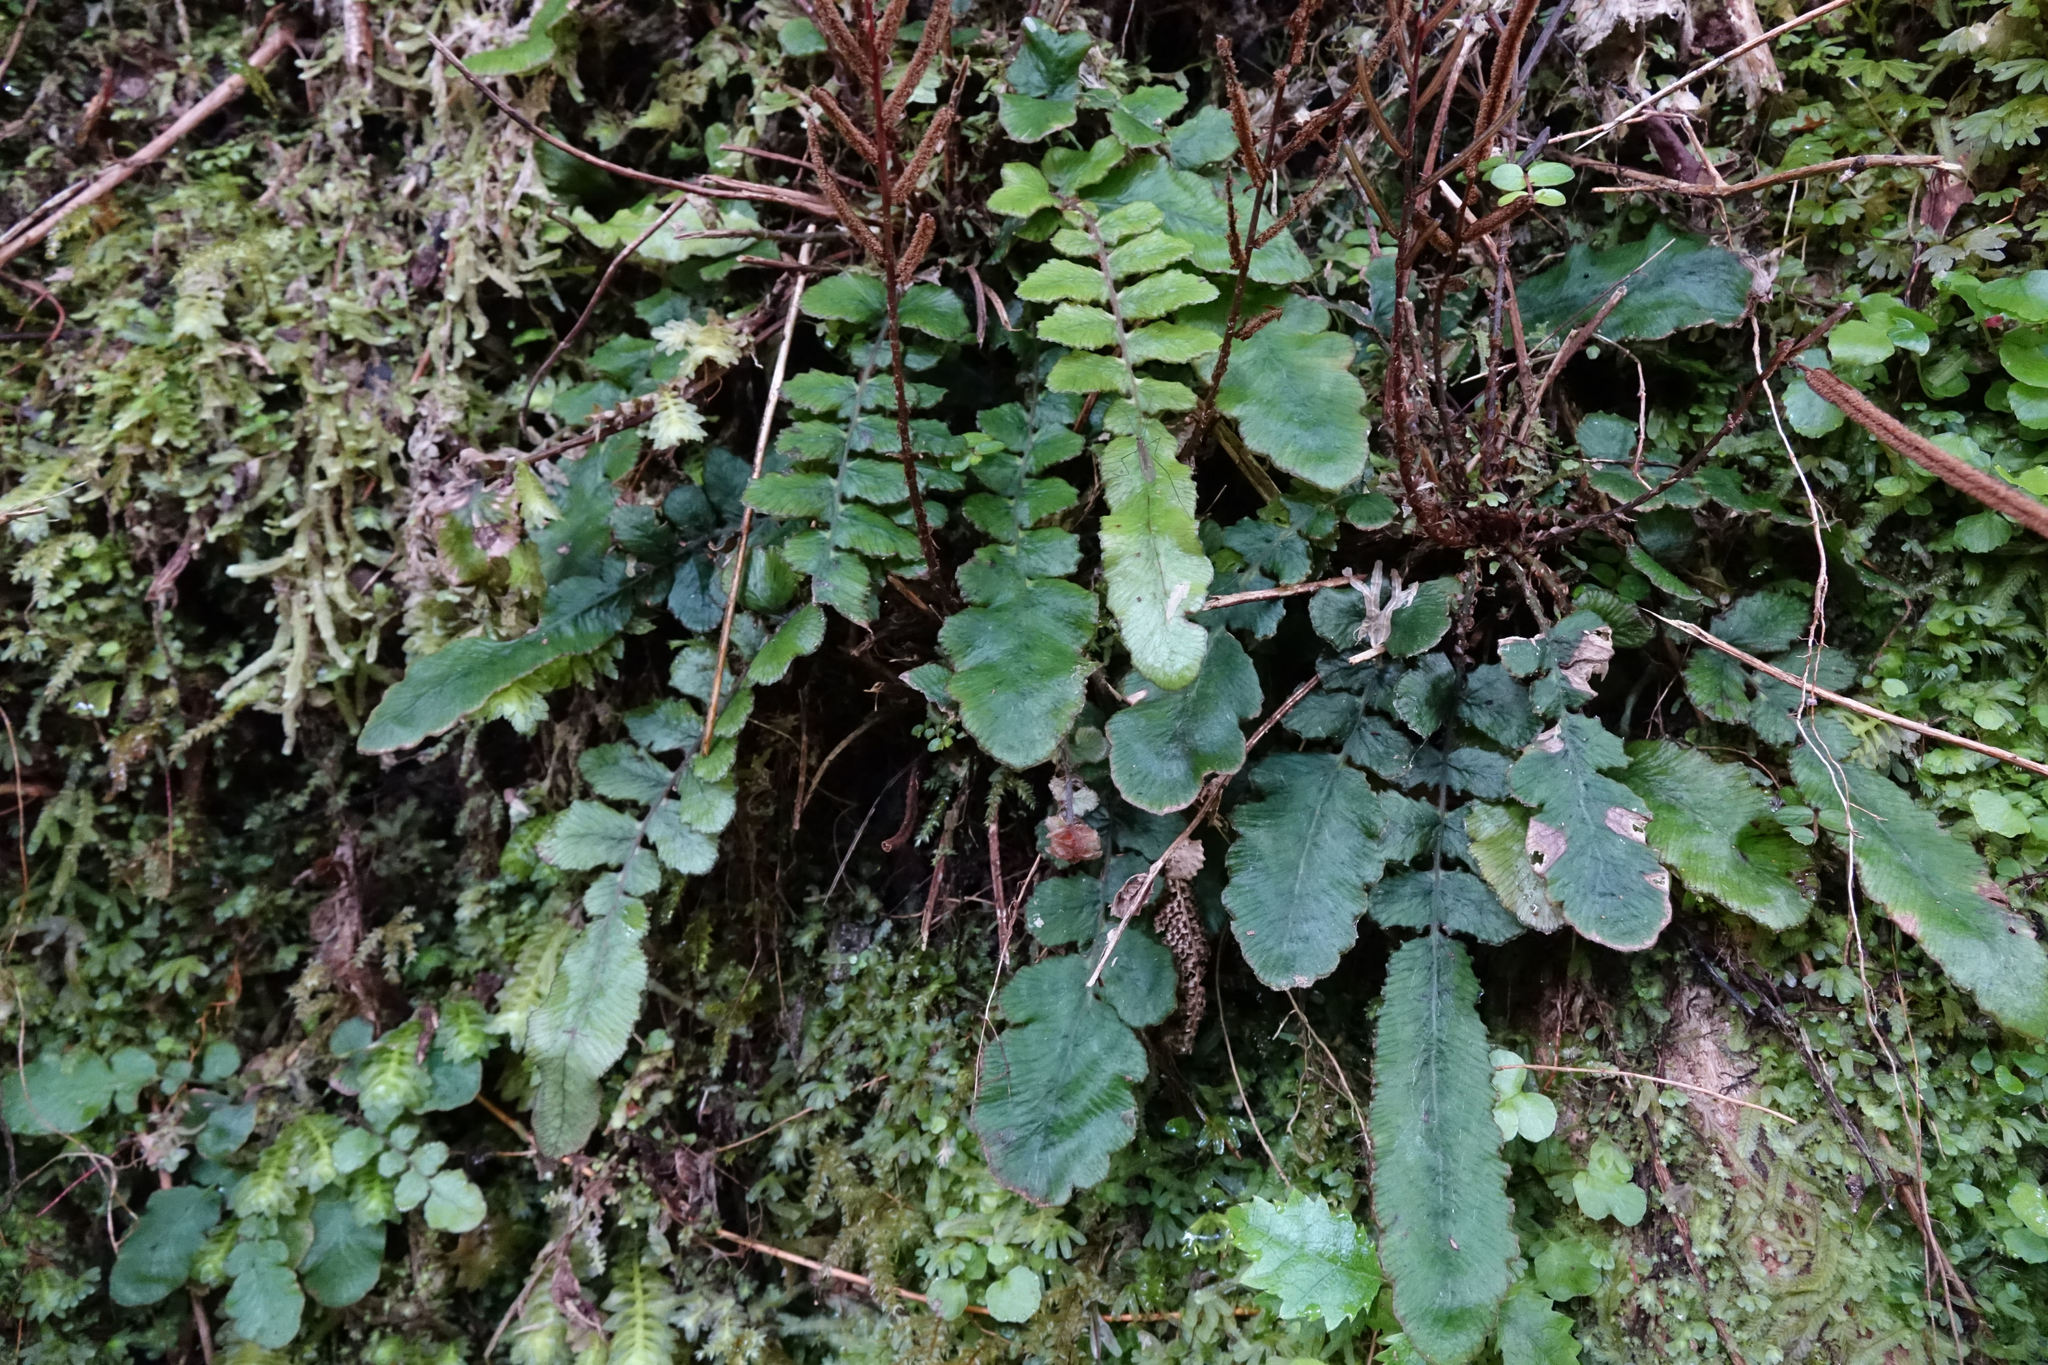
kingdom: Plantae
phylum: Tracheophyta
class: Polypodiopsida
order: Polypodiales
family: Blechnaceae
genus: Cranfillia
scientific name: Cranfillia nigra
